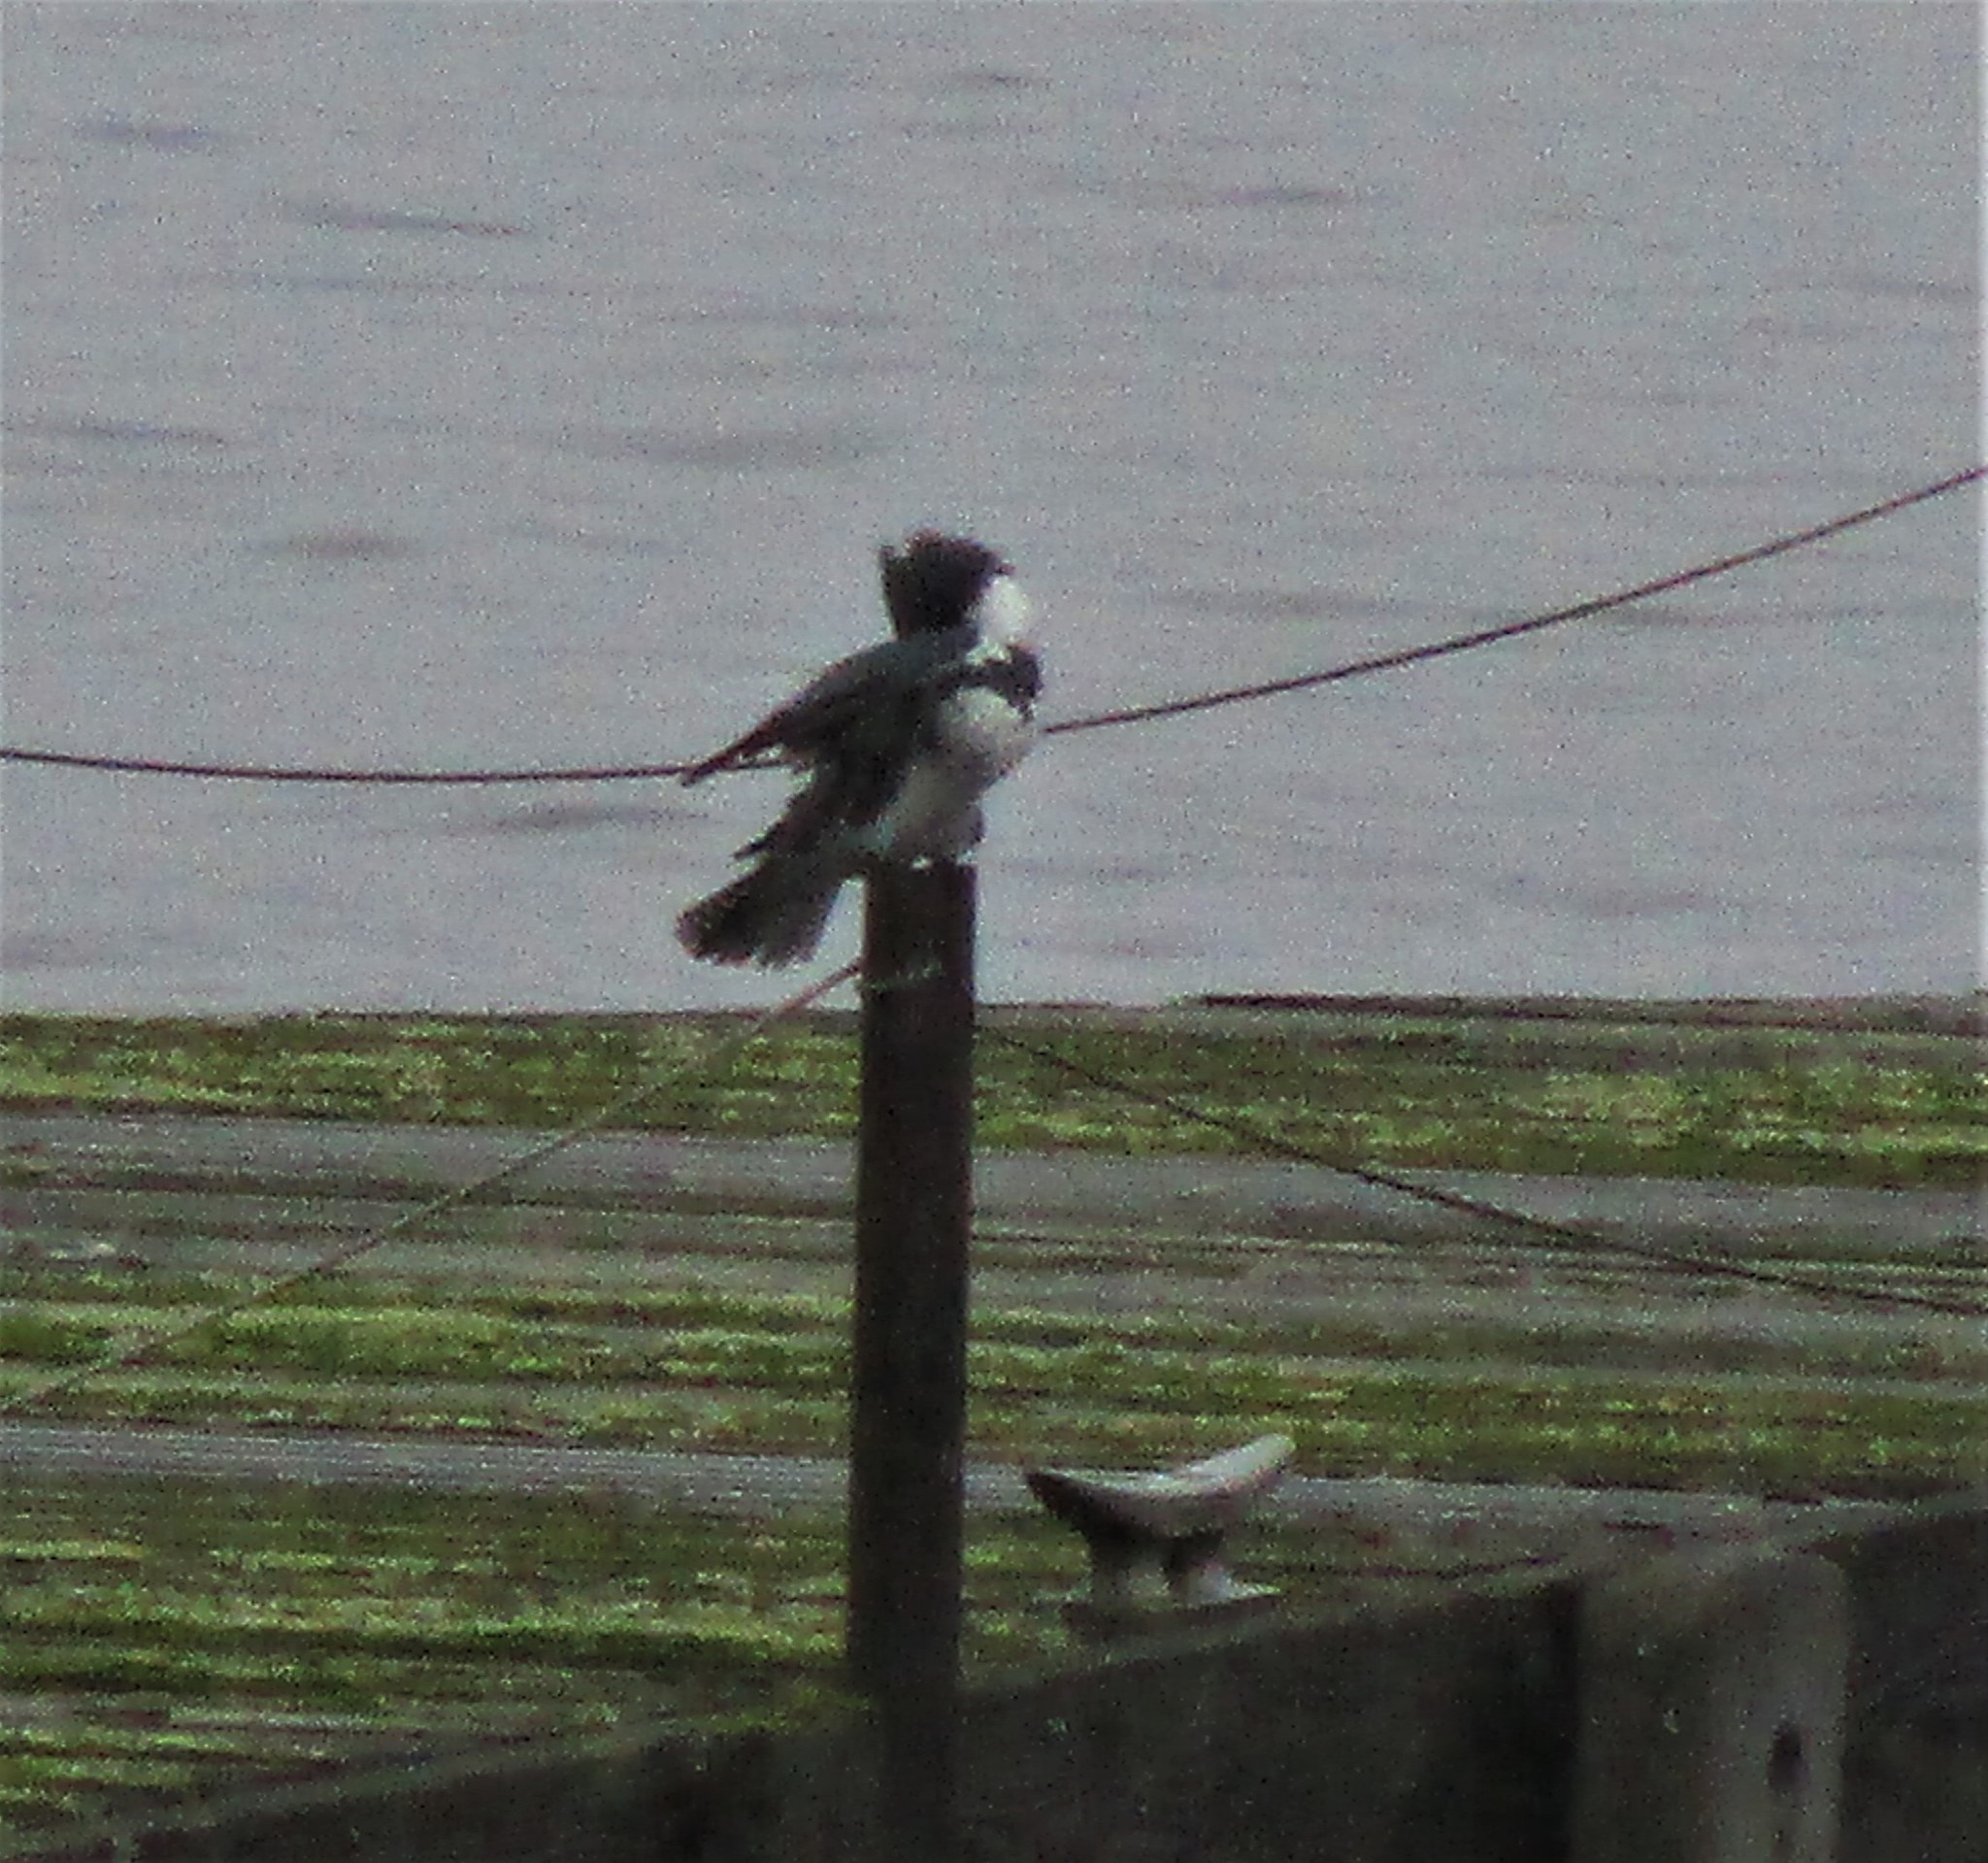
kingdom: Animalia
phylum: Chordata
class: Aves
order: Coraciiformes
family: Alcedinidae
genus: Megaceryle
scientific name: Megaceryle alcyon
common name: Belted kingfisher
